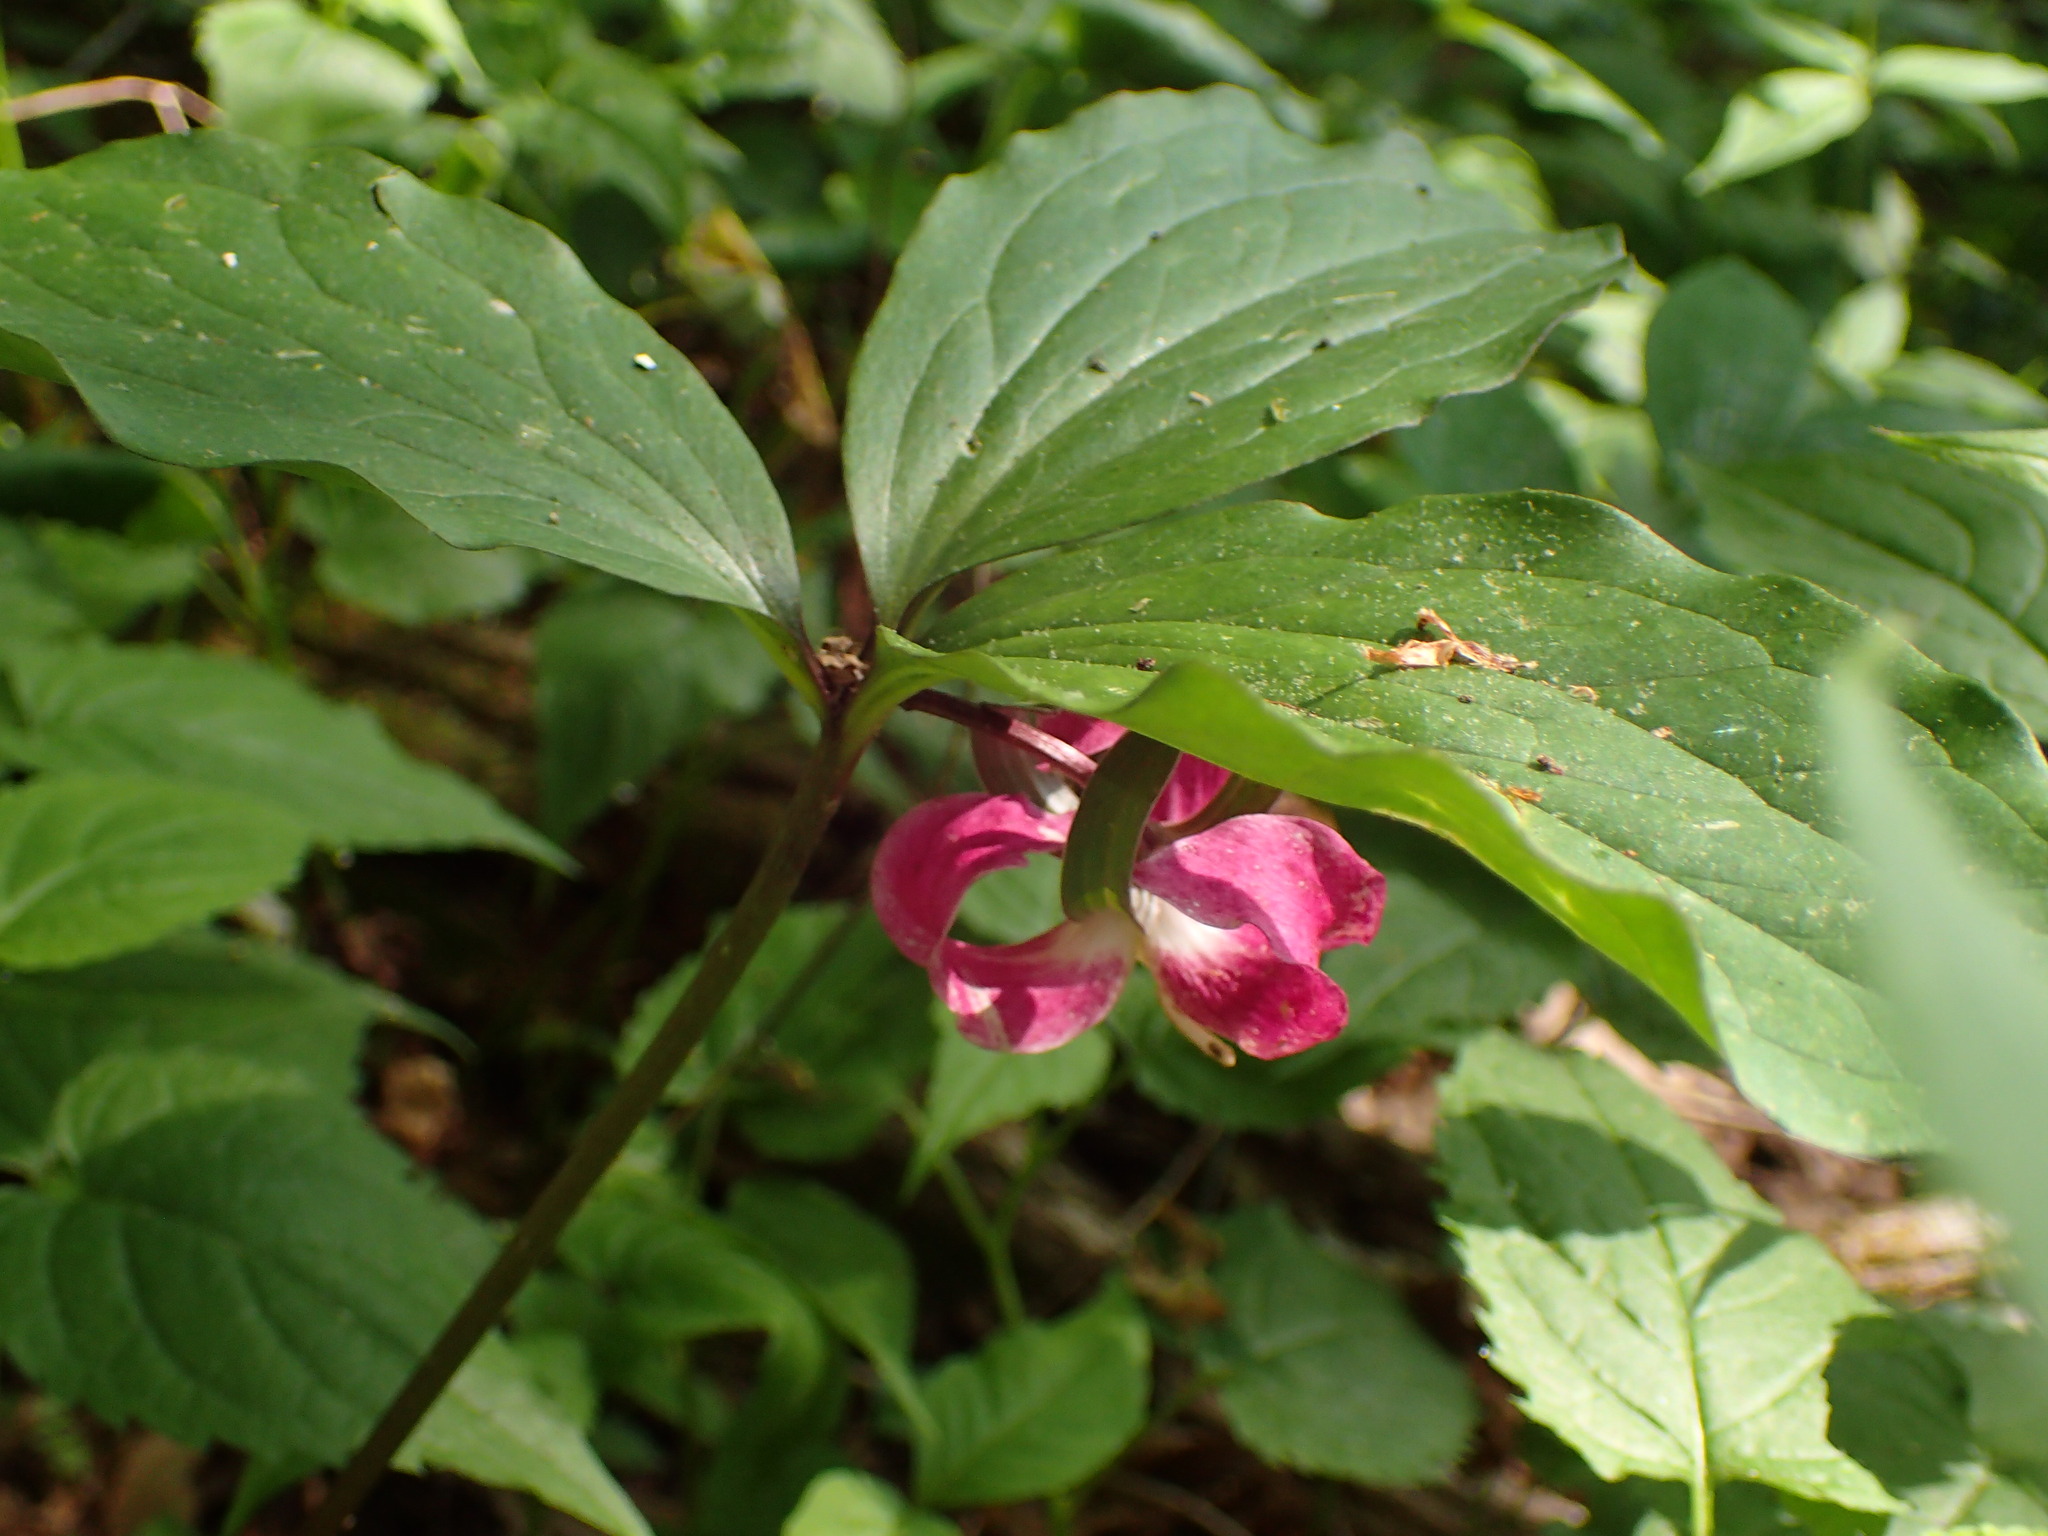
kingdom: Plantae
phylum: Tracheophyta
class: Liliopsida
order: Liliales
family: Melanthiaceae
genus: Trillium
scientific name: Trillium catesbaei
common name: Bashful trillium
